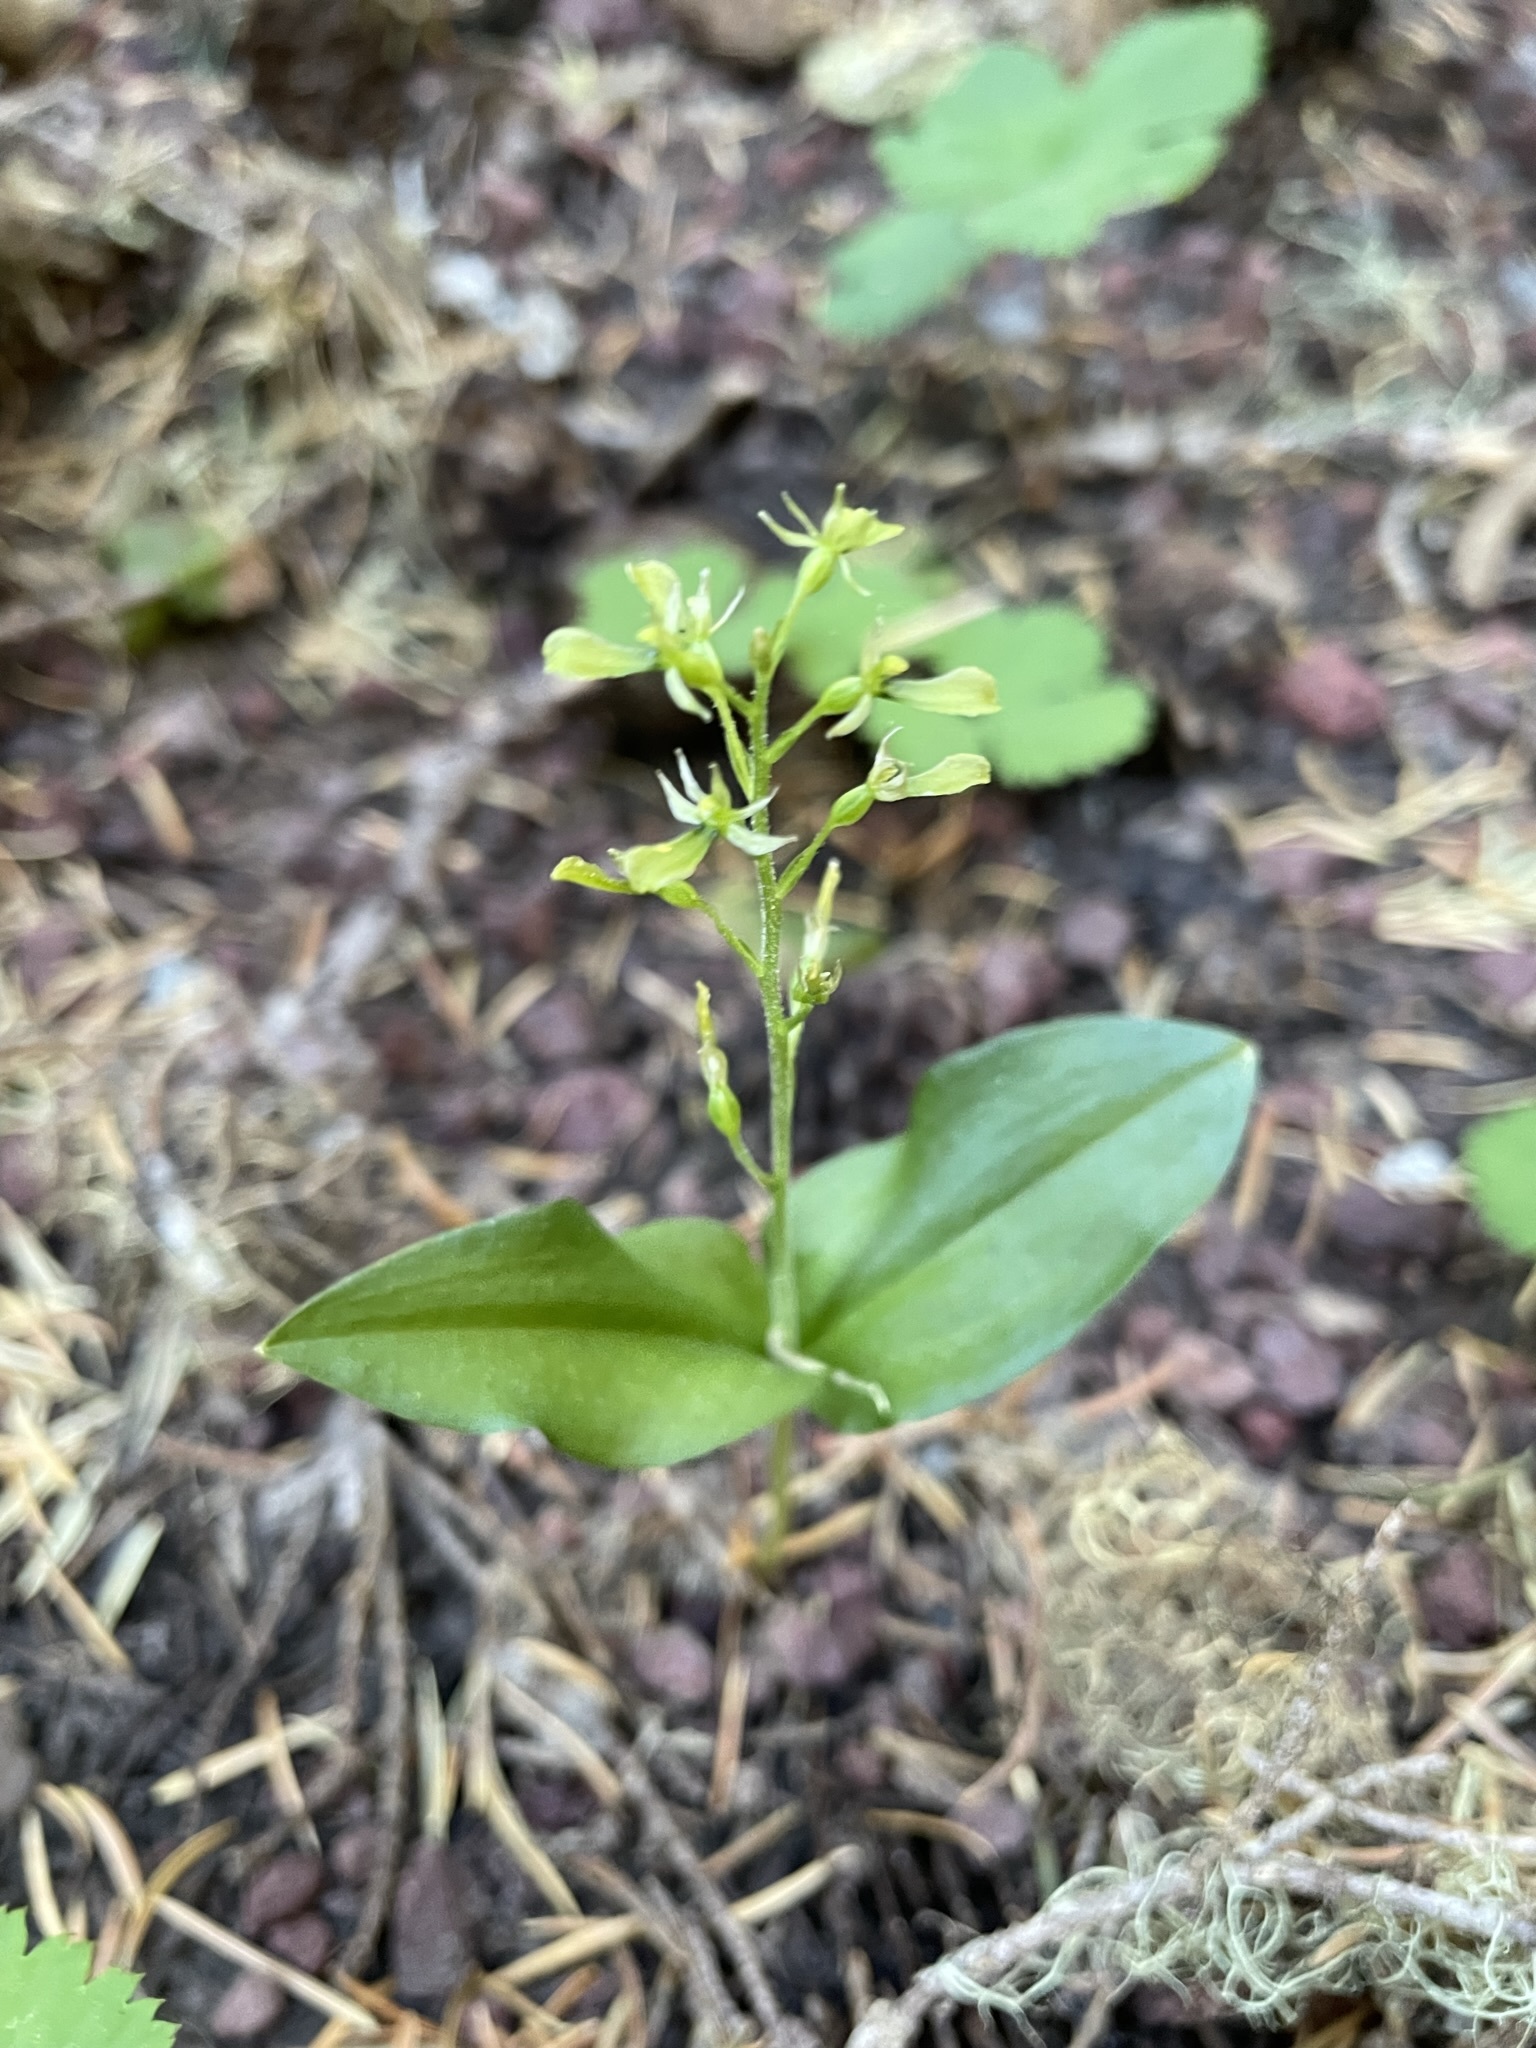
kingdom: Plantae
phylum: Tracheophyta
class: Liliopsida
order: Asparagales
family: Orchidaceae
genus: Neottia
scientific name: Neottia banksiana
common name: Northwestern twayblade
